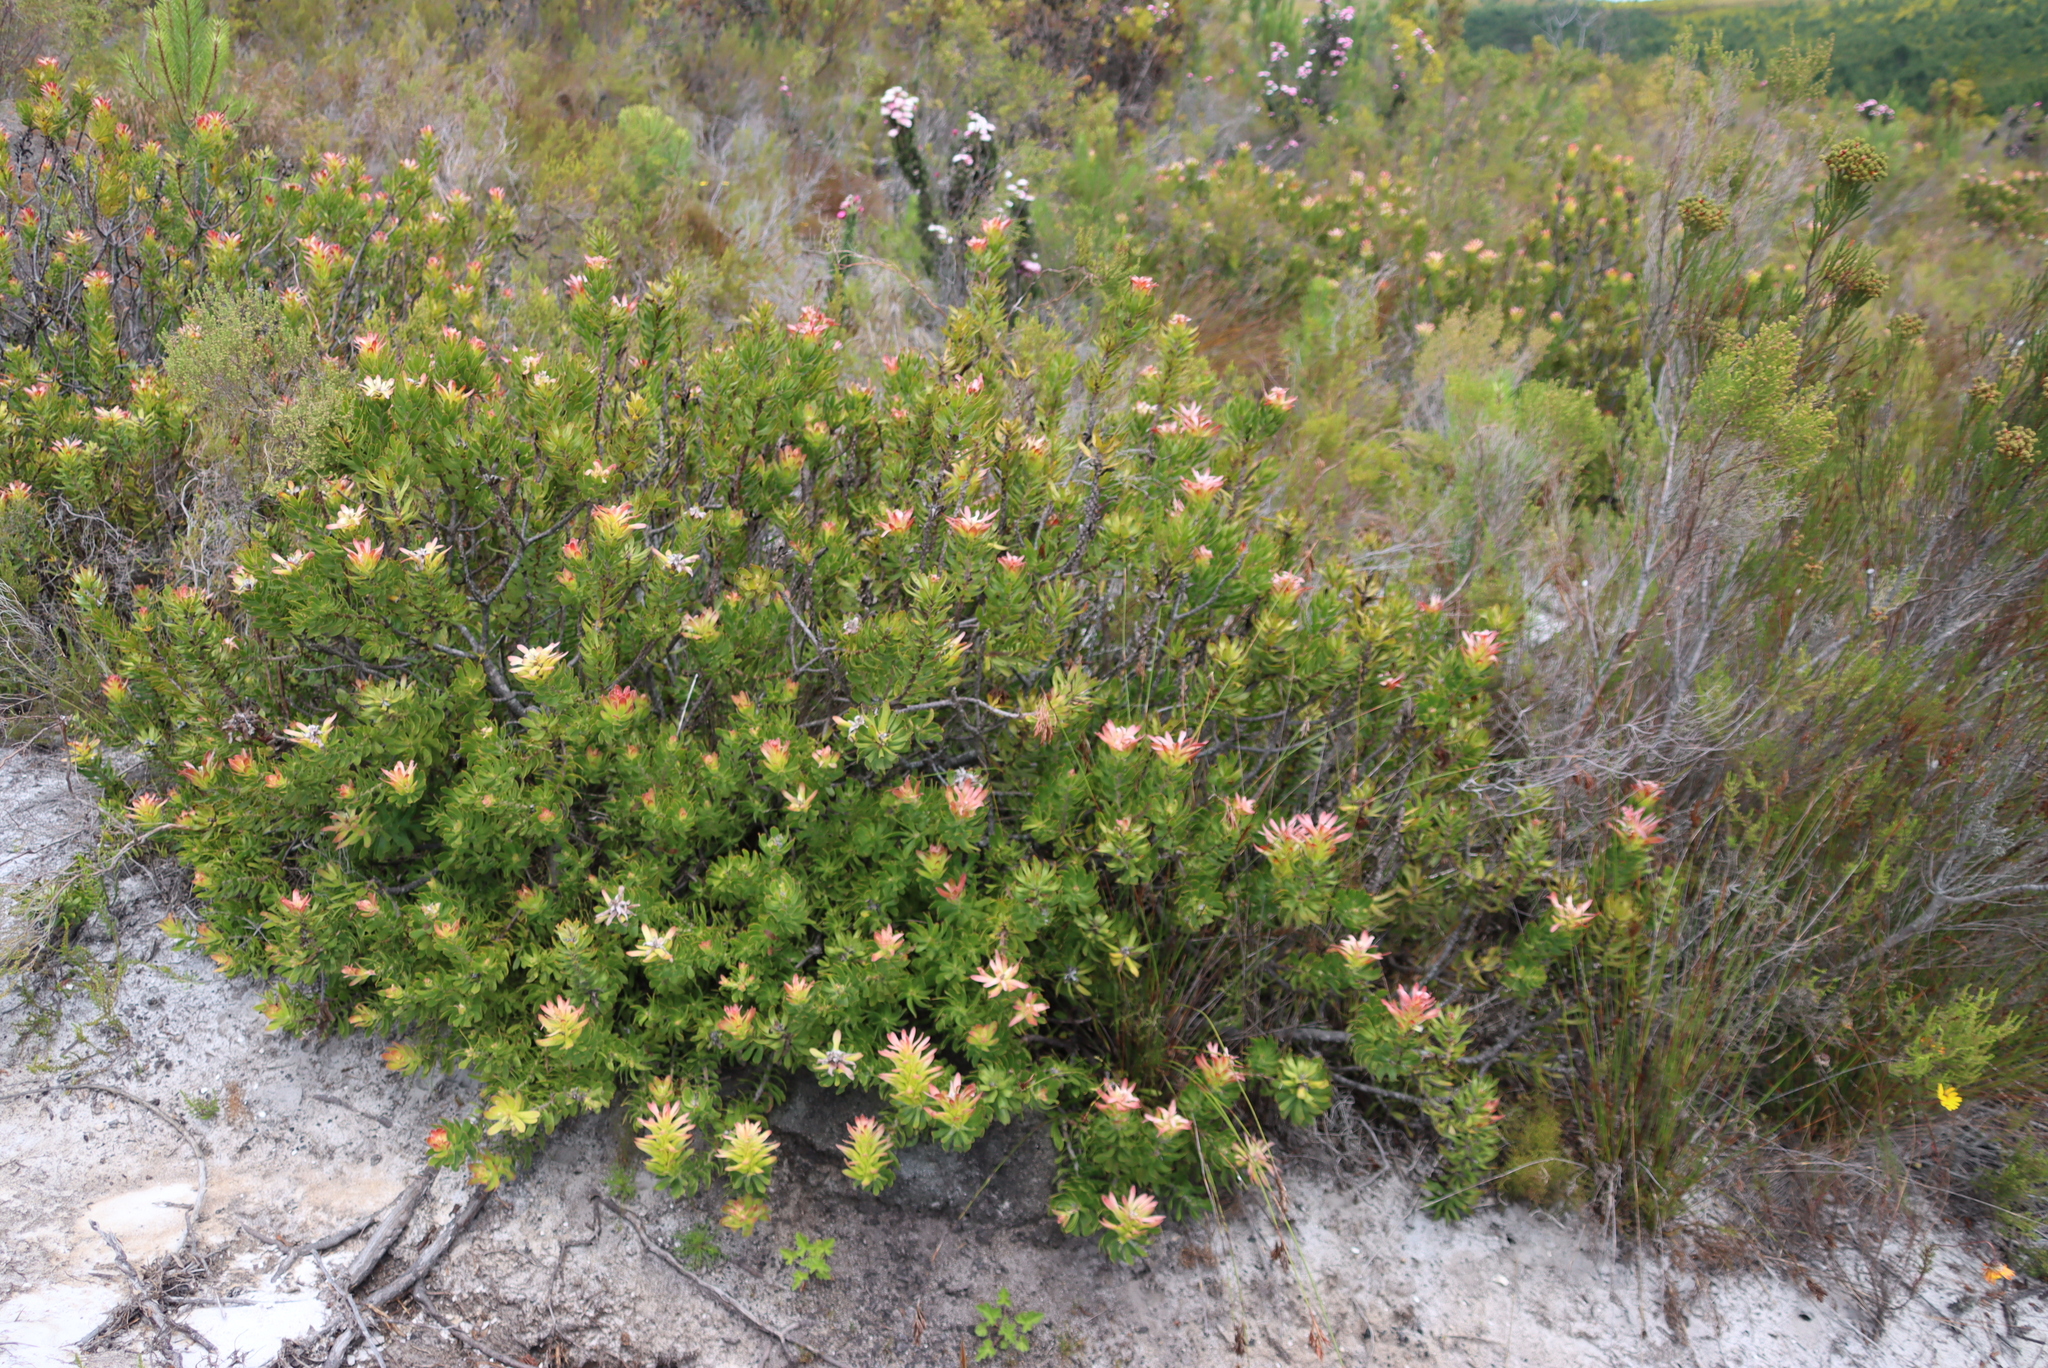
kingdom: Plantae
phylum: Tracheophyta
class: Magnoliopsida
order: Proteales
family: Proteaceae
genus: Mimetes
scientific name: Mimetes cucullatus
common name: Common pagoda
